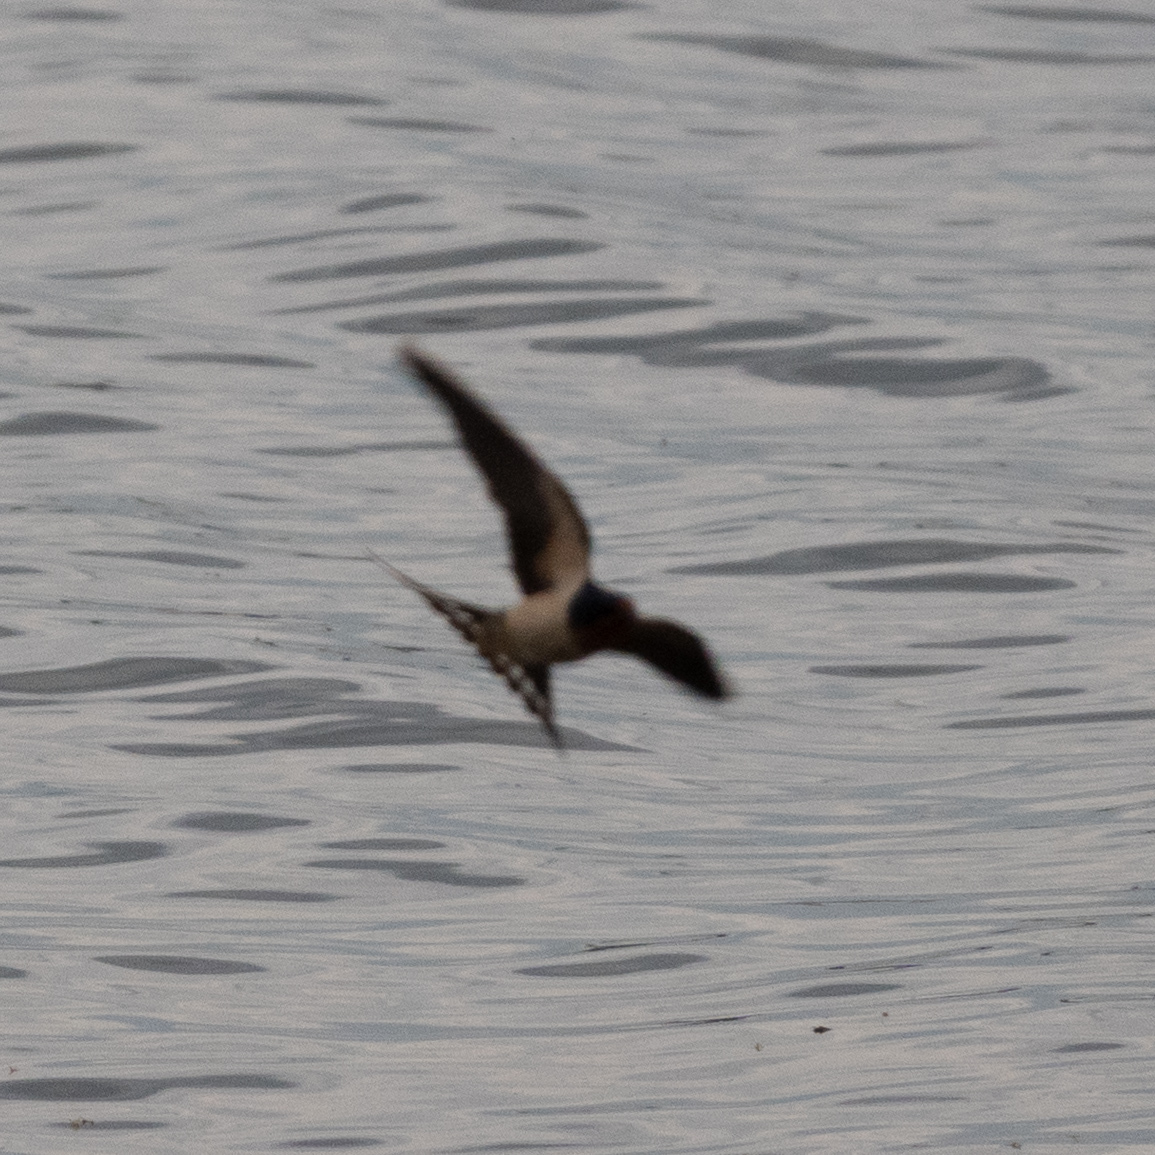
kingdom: Animalia
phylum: Chordata
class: Aves
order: Passeriformes
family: Hirundinidae
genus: Hirundo
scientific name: Hirundo rustica
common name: Barn swallow
